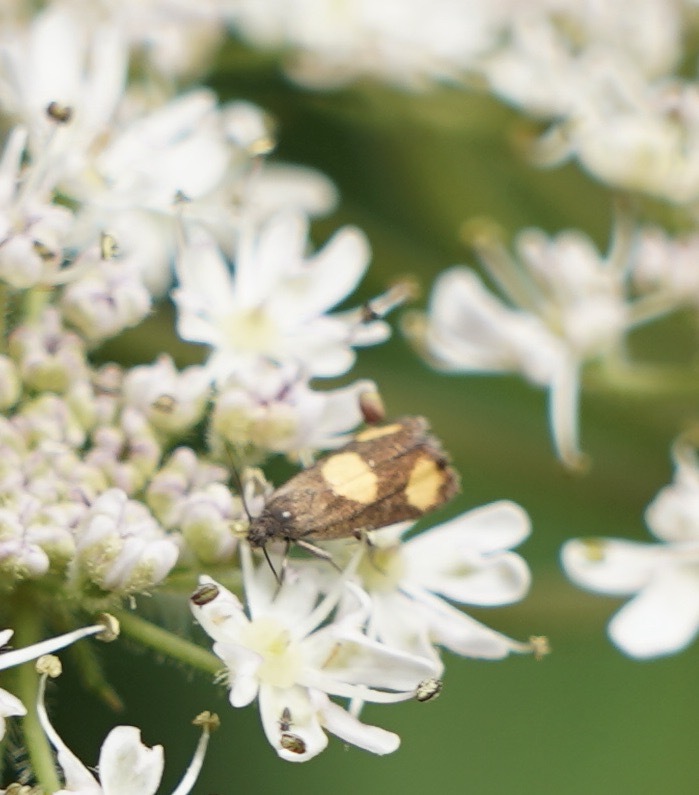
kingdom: Animalia
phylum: Arthropoda
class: Insecta
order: Lepidoptera
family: Tortricidae
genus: Pammene
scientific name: Pammene aurana
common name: Orange-spot piercer
